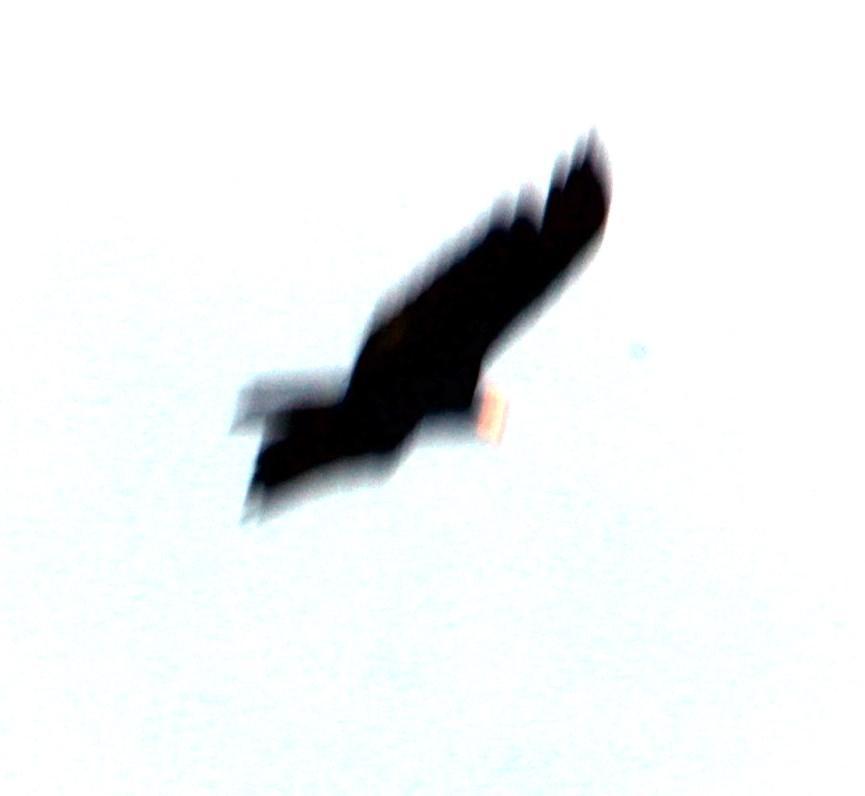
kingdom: Animalia
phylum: Chordata
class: Aves
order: Accipitriformes
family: Cathartidae
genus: Cathartes
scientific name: Cathartes aura
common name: Turkey vulture
